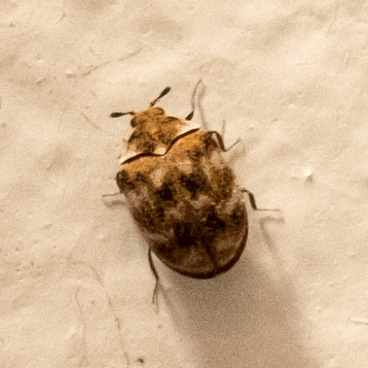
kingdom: Animalia
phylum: Arthropoda
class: Insecta
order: Coleoptera
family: Dermestidae
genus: Anthrenus
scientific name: Anthrenus verbasci
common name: Varied carpet beetle
